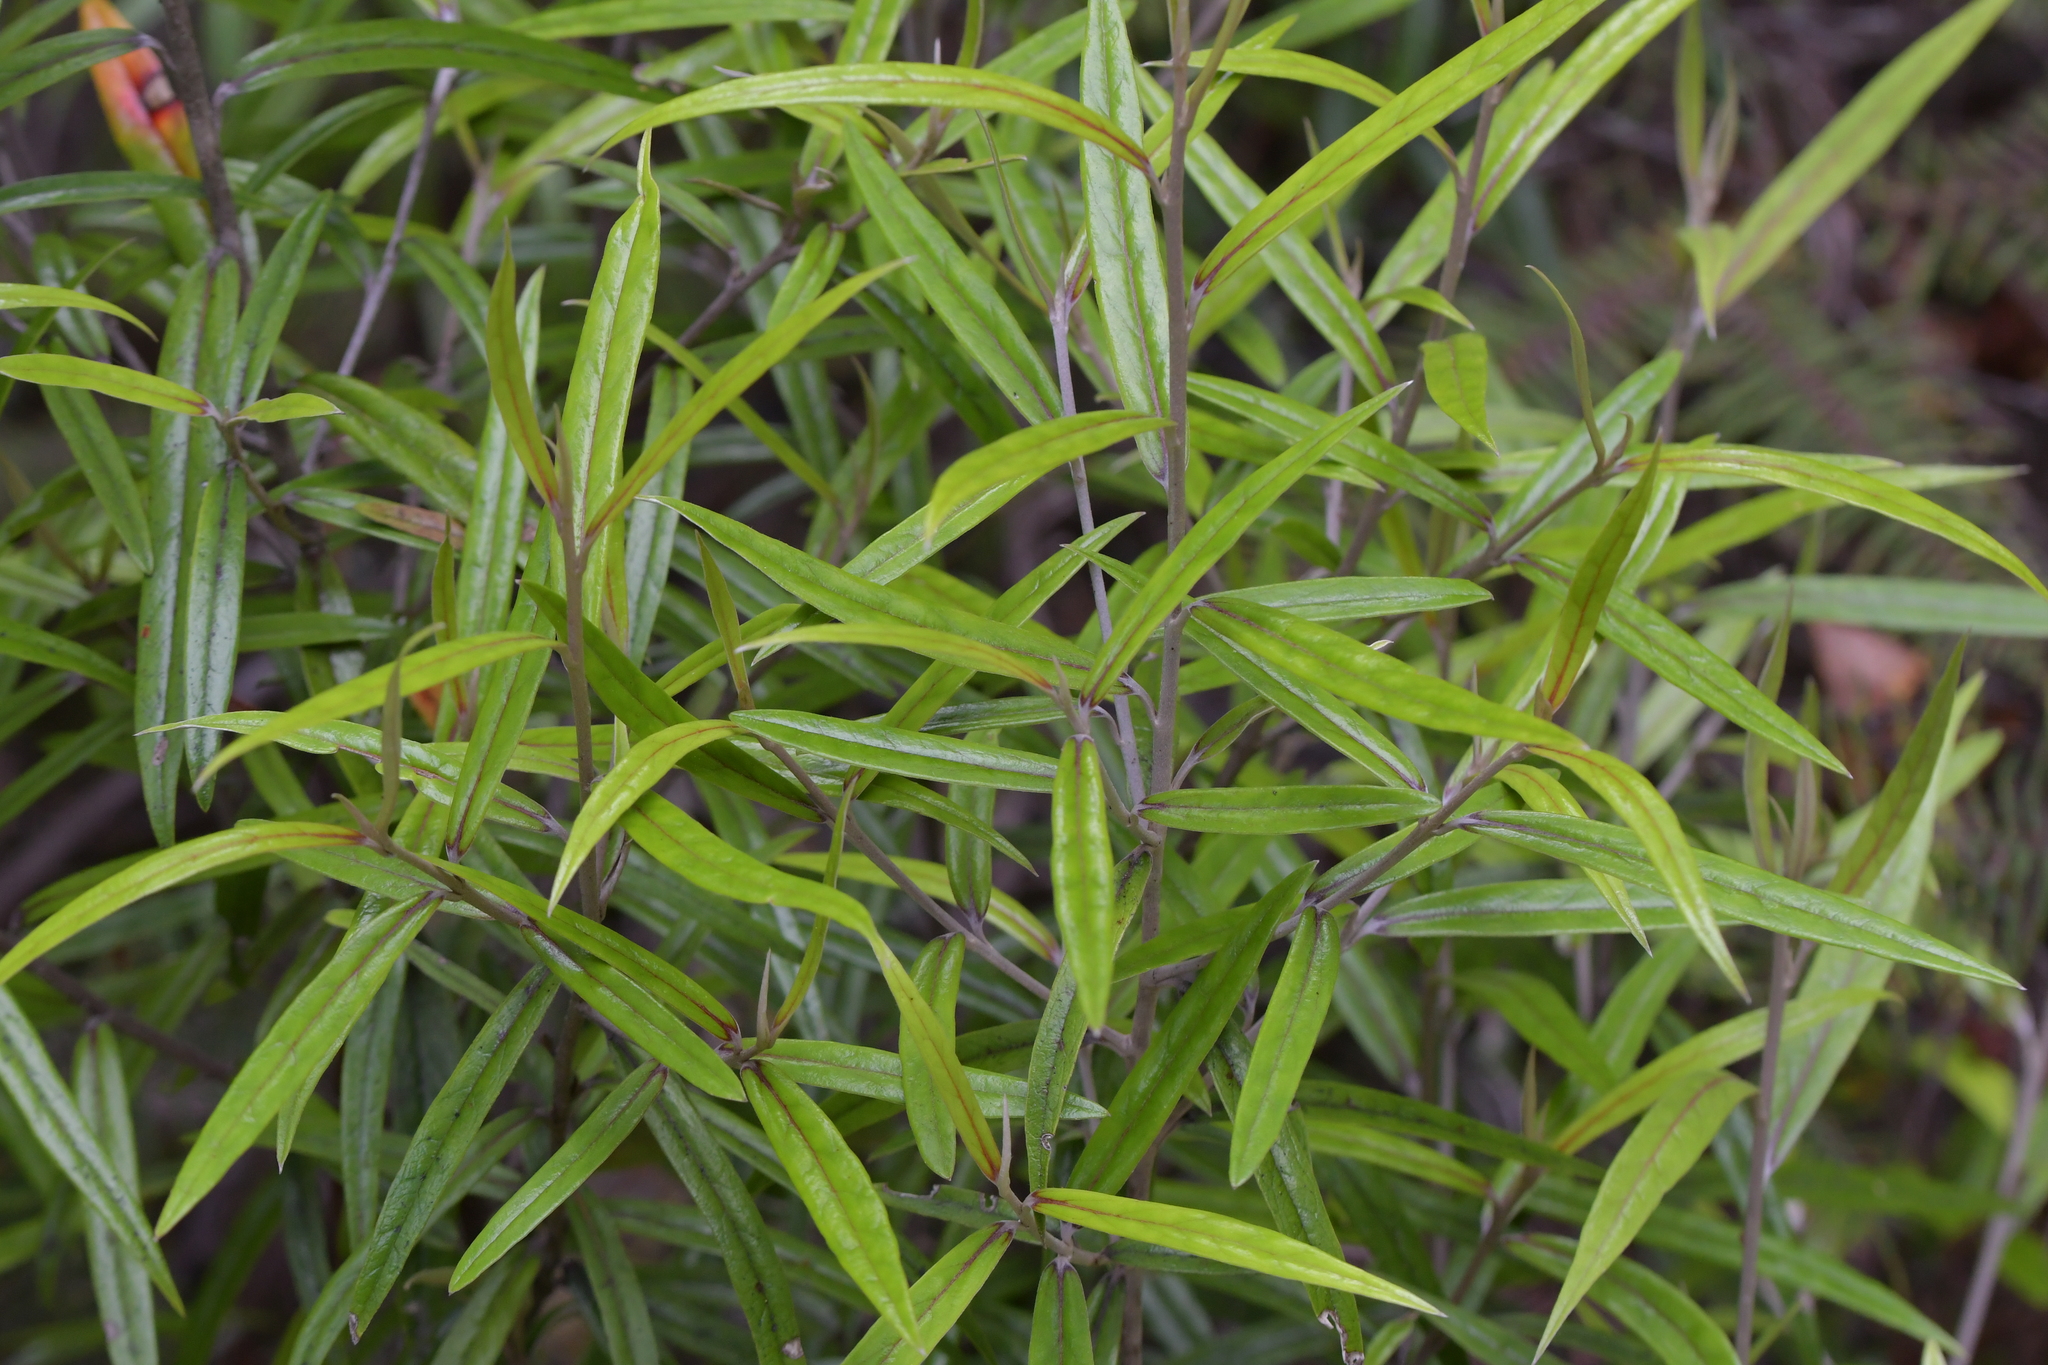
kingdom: Plantae
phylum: Tracheophyta
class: Magnoliopsida
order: Asterales
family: Argophyllaceae
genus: Corokia
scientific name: Corokia buddleioides
